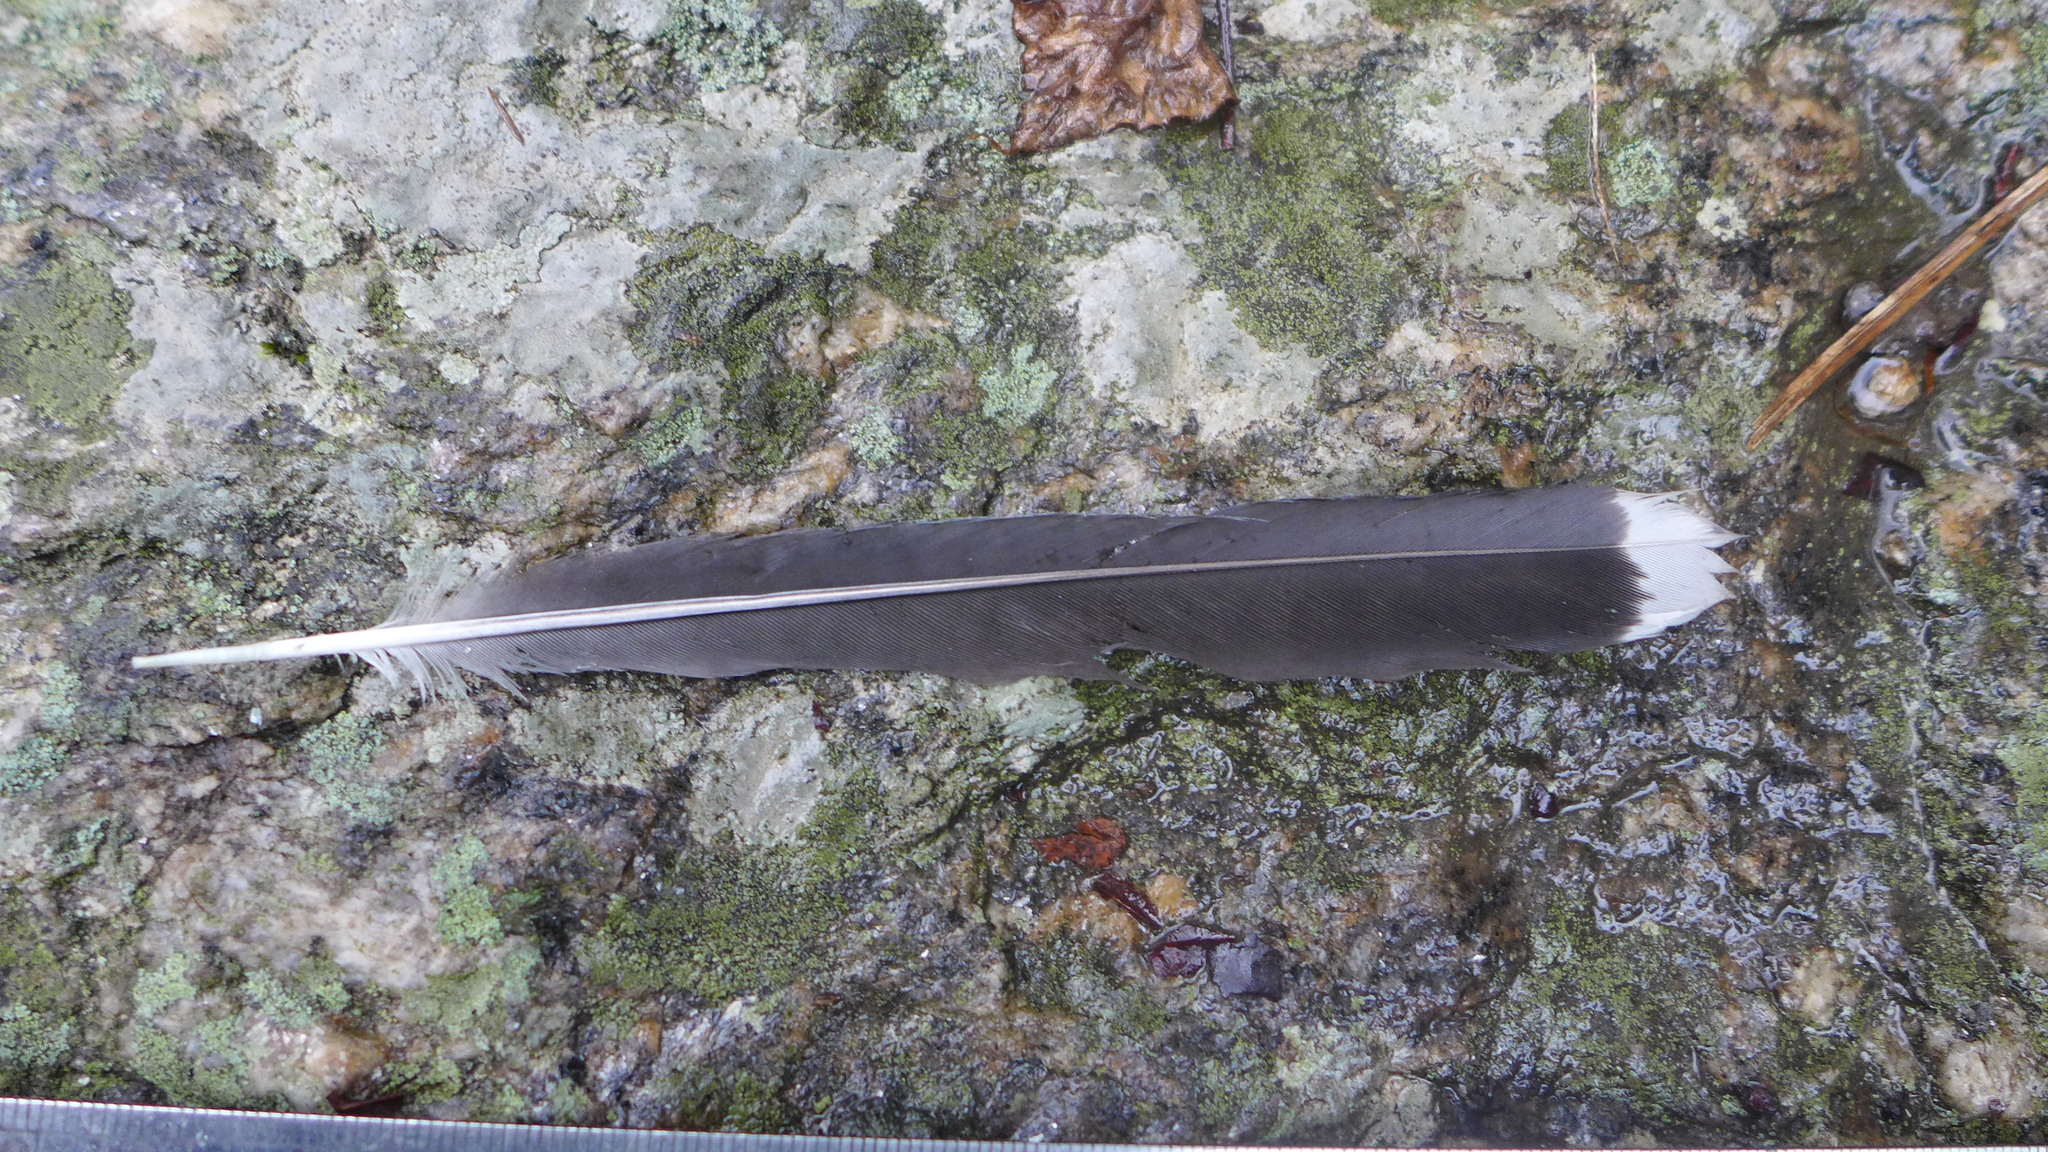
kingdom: Animalia
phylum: Chordata
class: Aves
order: Passeriformes
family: Corvidae
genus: Garrulus
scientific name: Garrulus lanceolatus
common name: Black-headed jay
